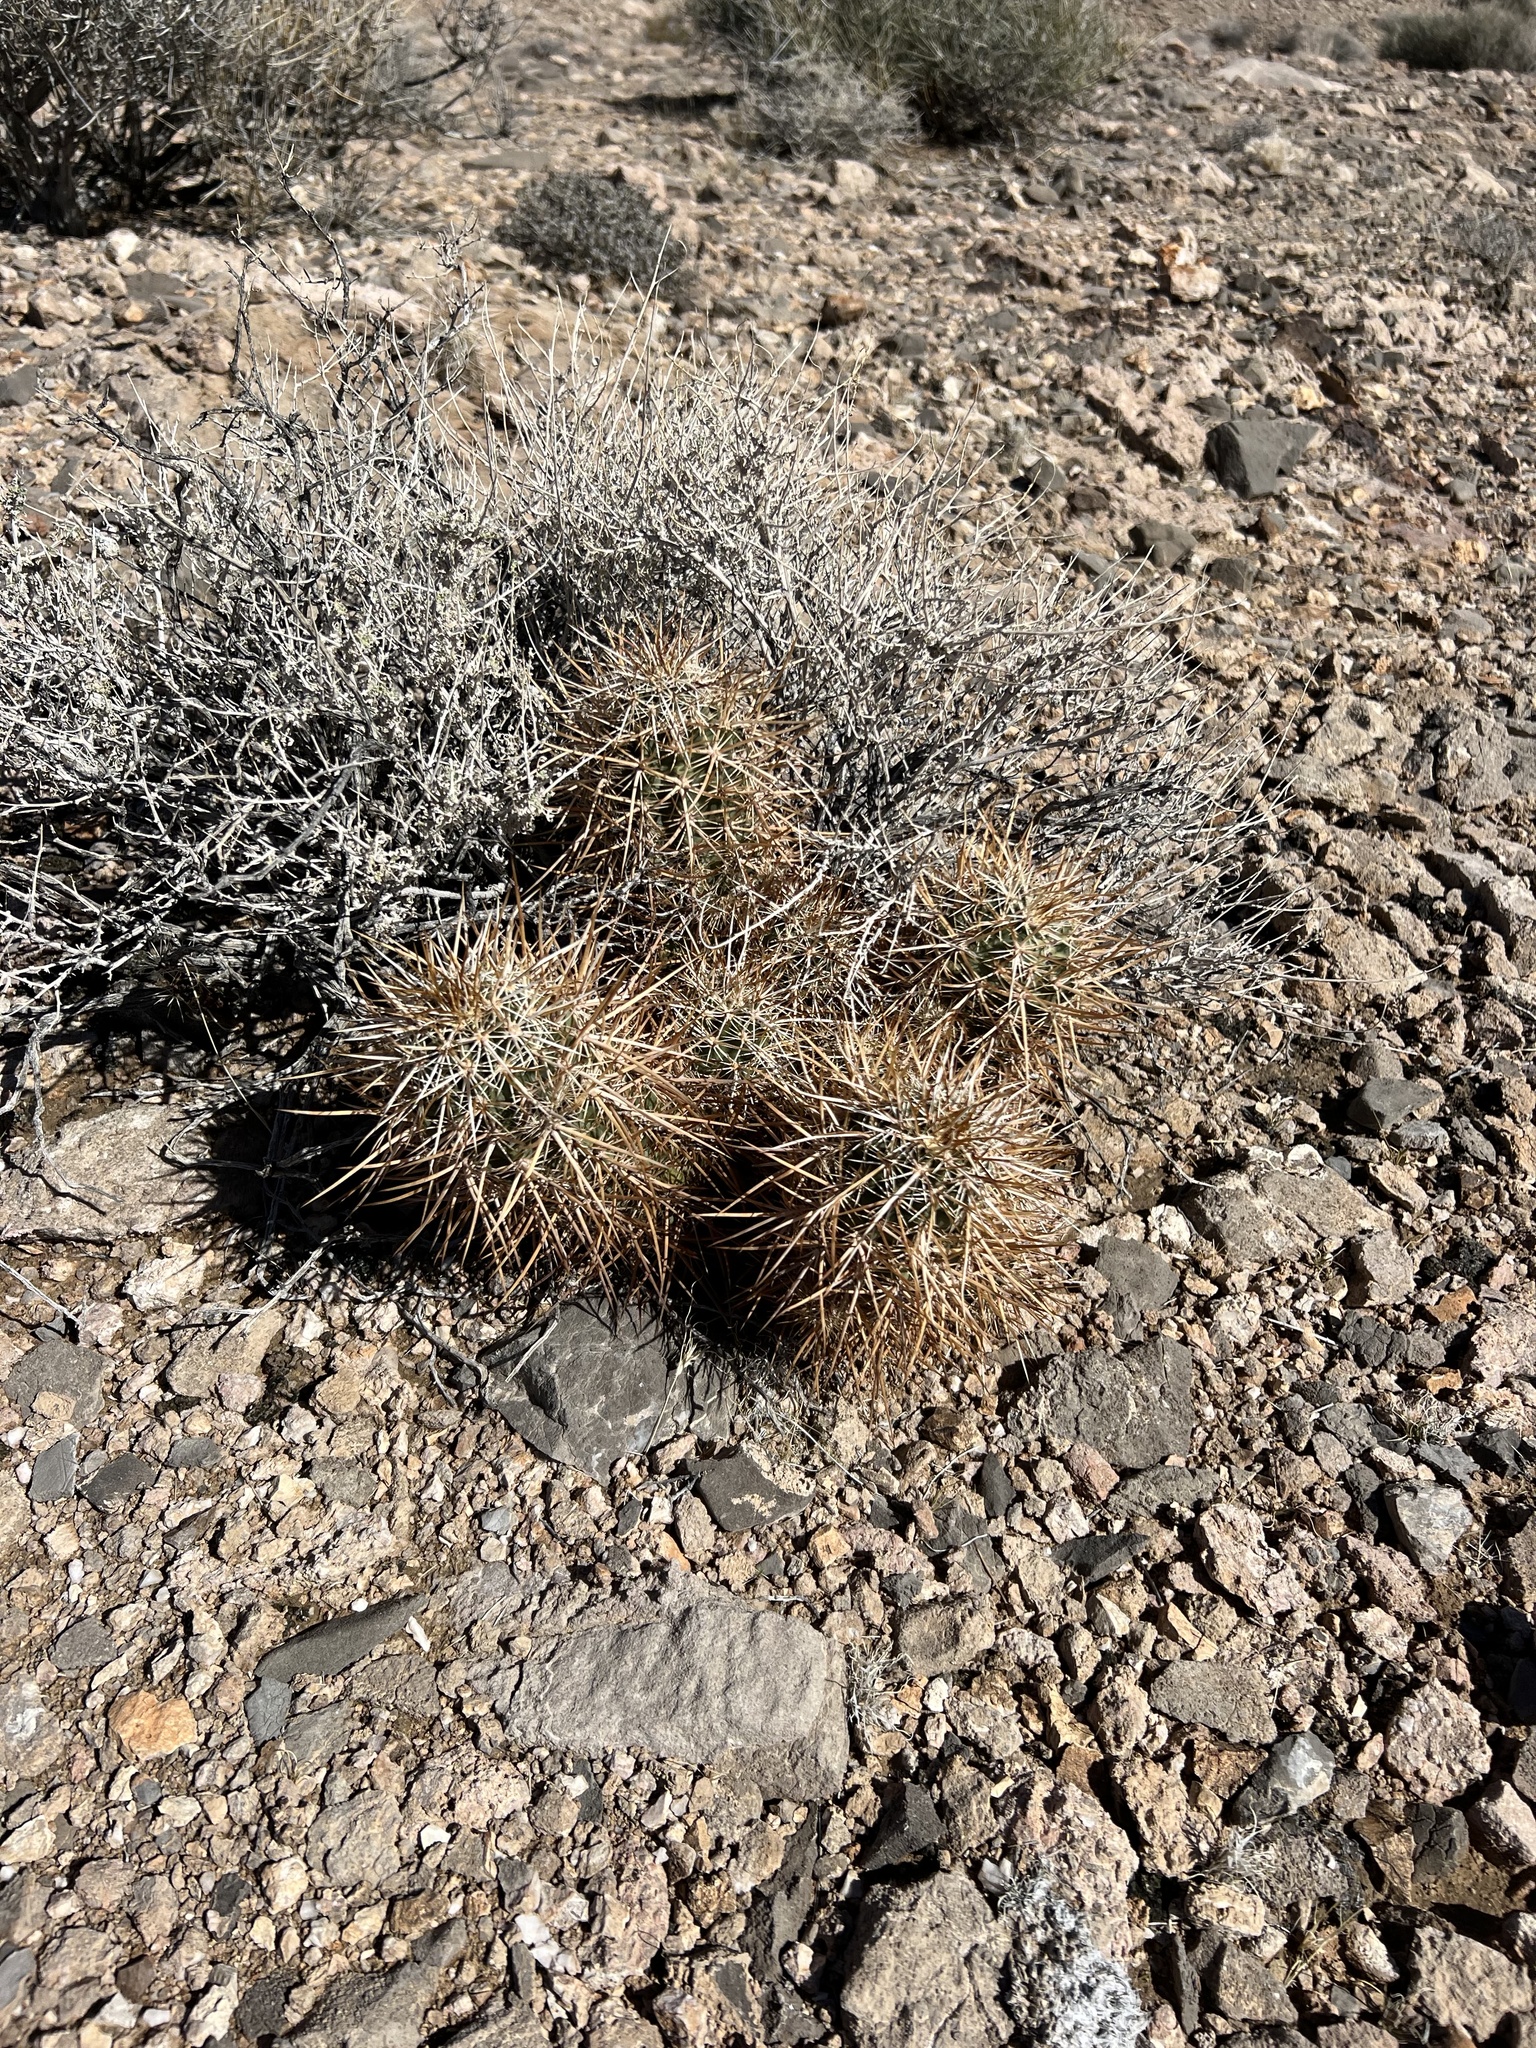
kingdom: Plantae
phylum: Tracheophyta
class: Magnoliopsida
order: Caryophyllales
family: Cactaceae
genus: Echinocereus
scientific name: Echinocereus engelmannii
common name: Engelmann's hedgehog cactus
